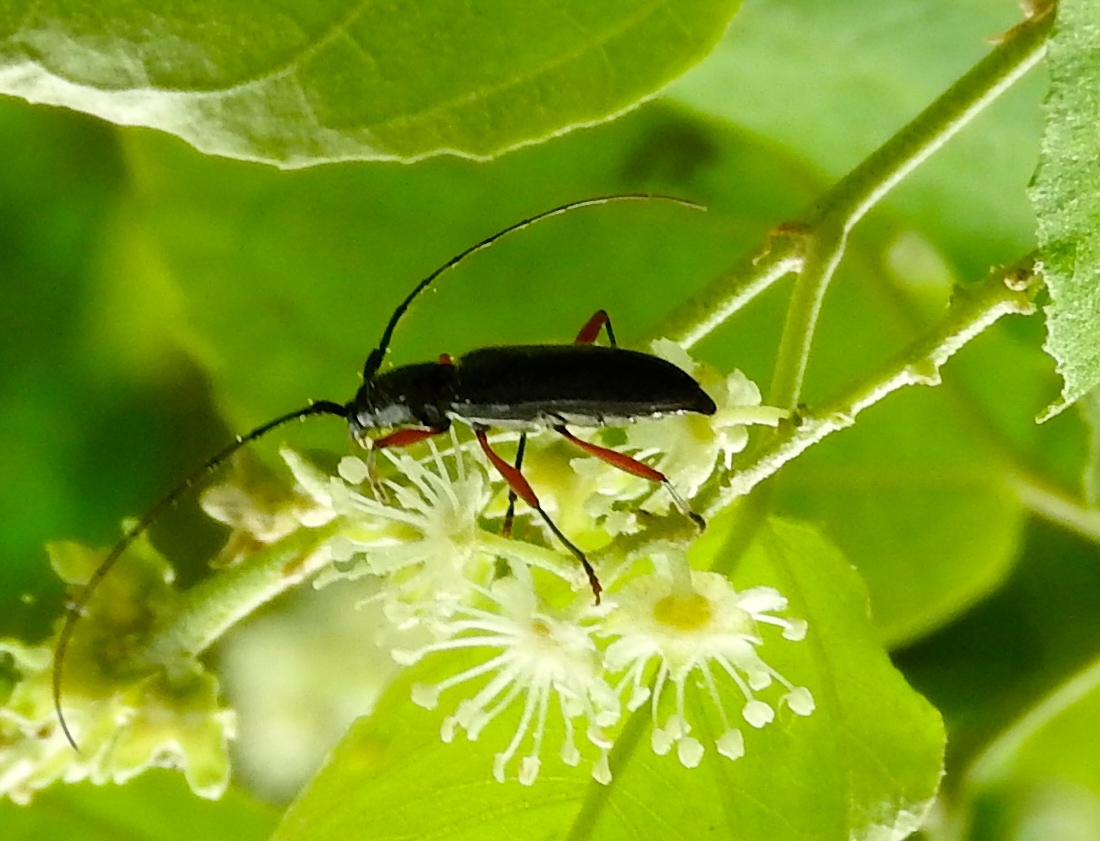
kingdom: Animalia
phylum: Arthropoda
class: Insecta
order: Coleoptera
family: Cerambycidae
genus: Stenosphenus
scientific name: Stenosphenus
